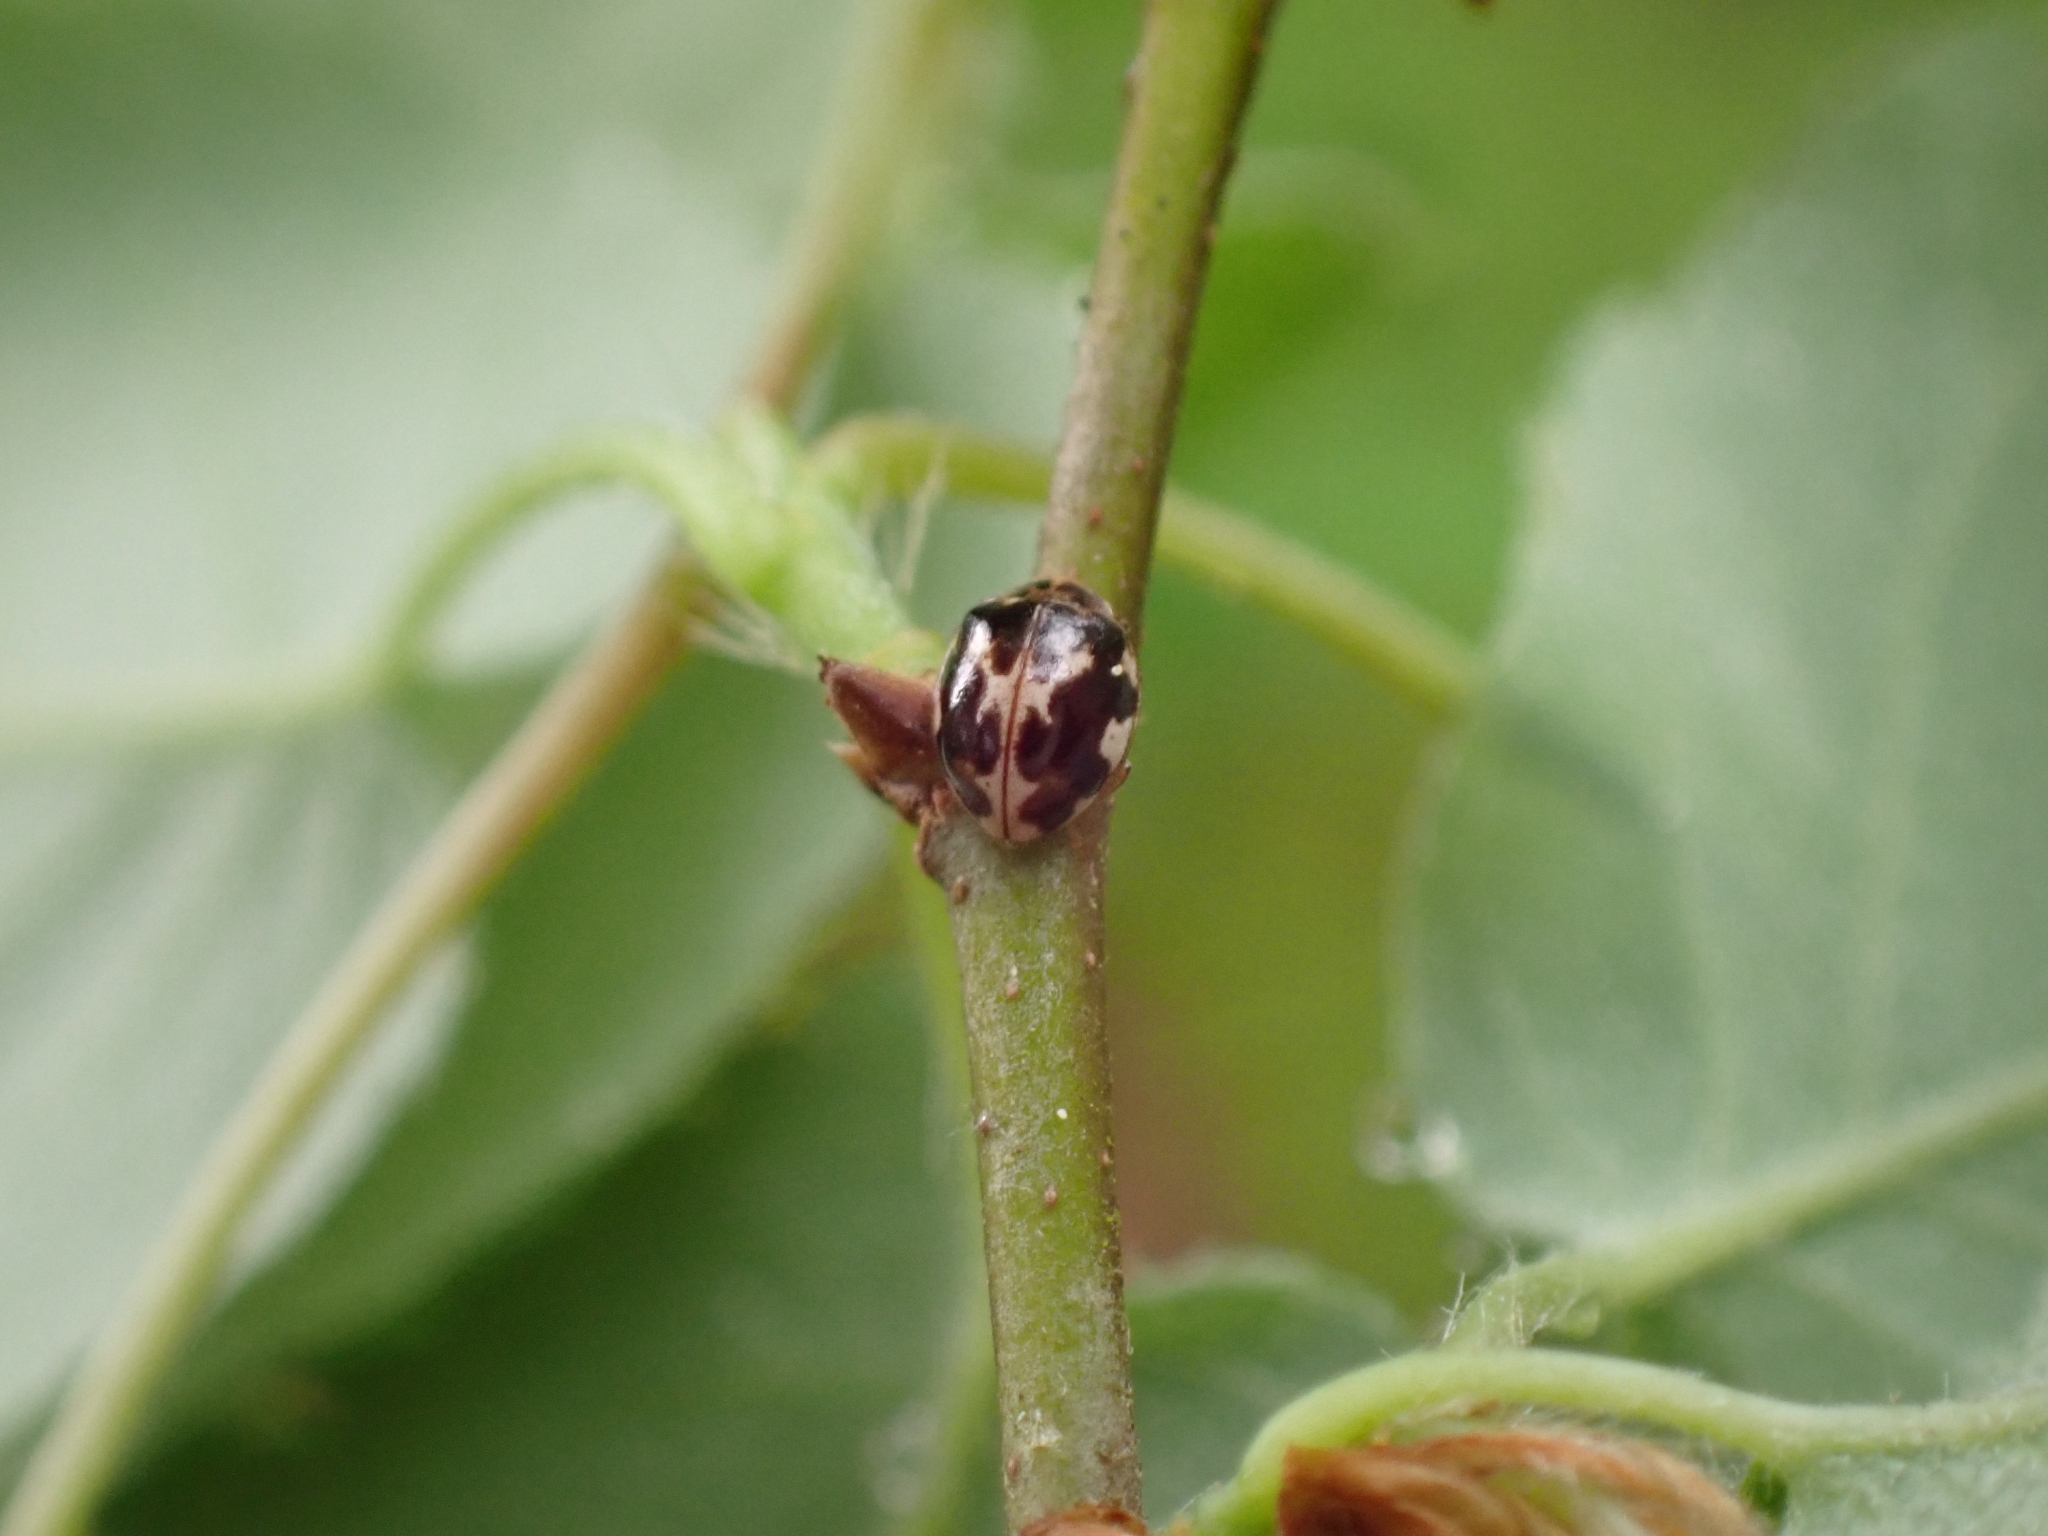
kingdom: Animalia
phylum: Arthropoda
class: Insecta
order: Coleoptera
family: Coccinellidae
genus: Psyllobora
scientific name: Psyllobora vigintimaculata
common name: Ladybird beetle
